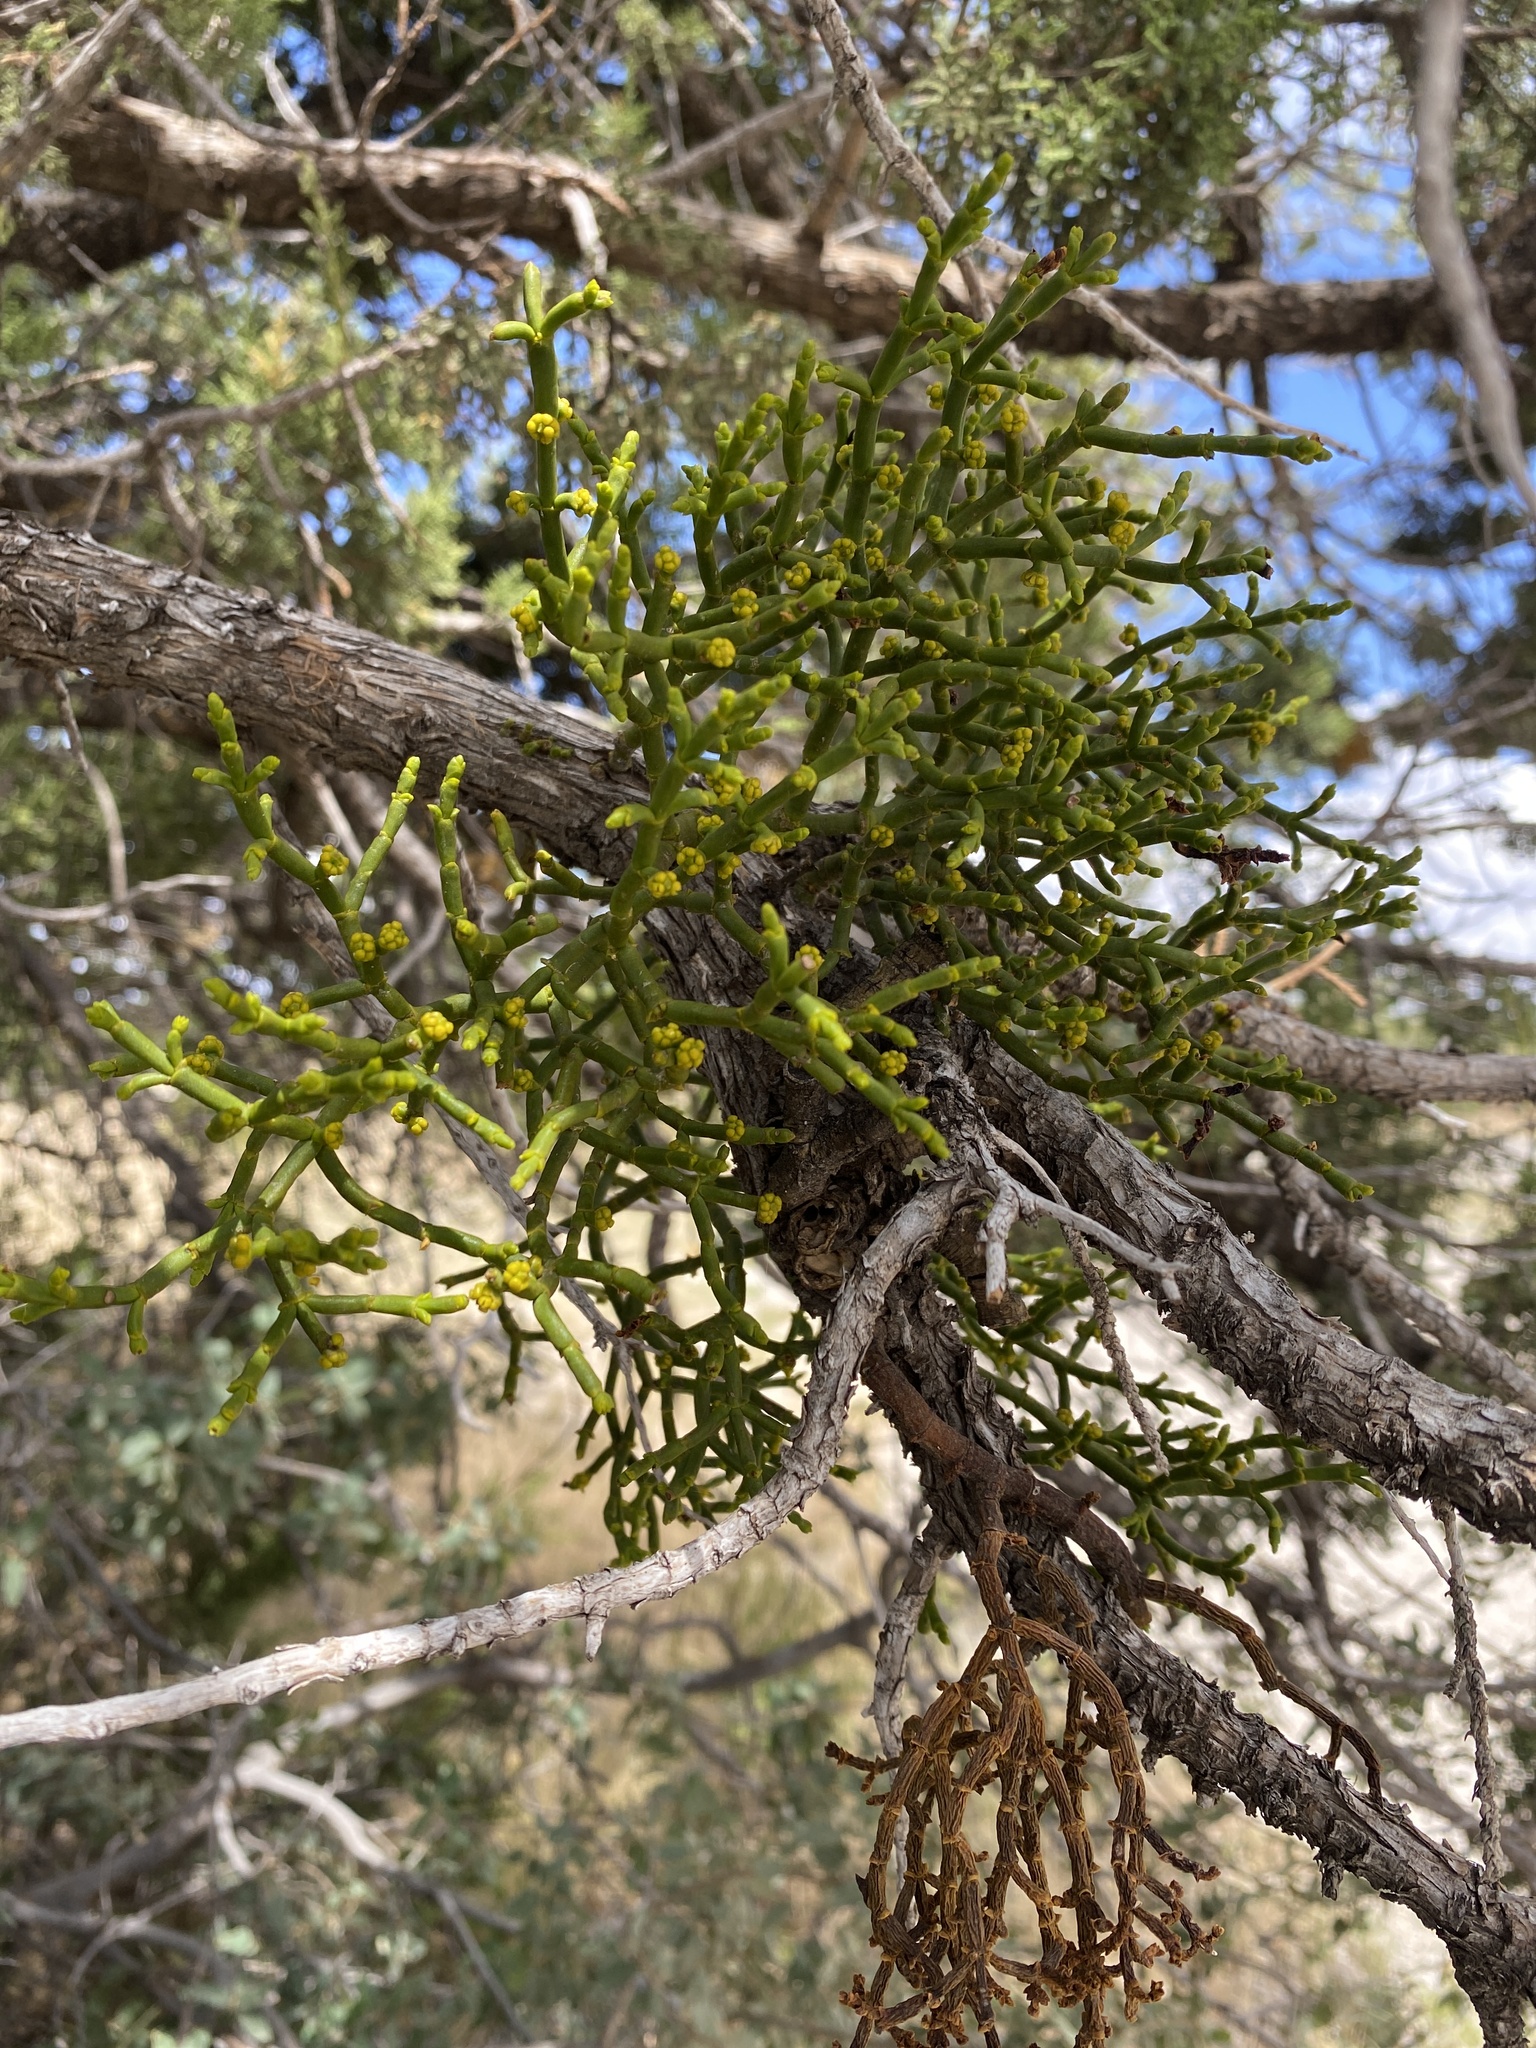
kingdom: Plantae
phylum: Tracheophyta
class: Magnoliopsida
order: Santalales
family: Viscaceae
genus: Phoradendron
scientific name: Phoradendron juniperinum
